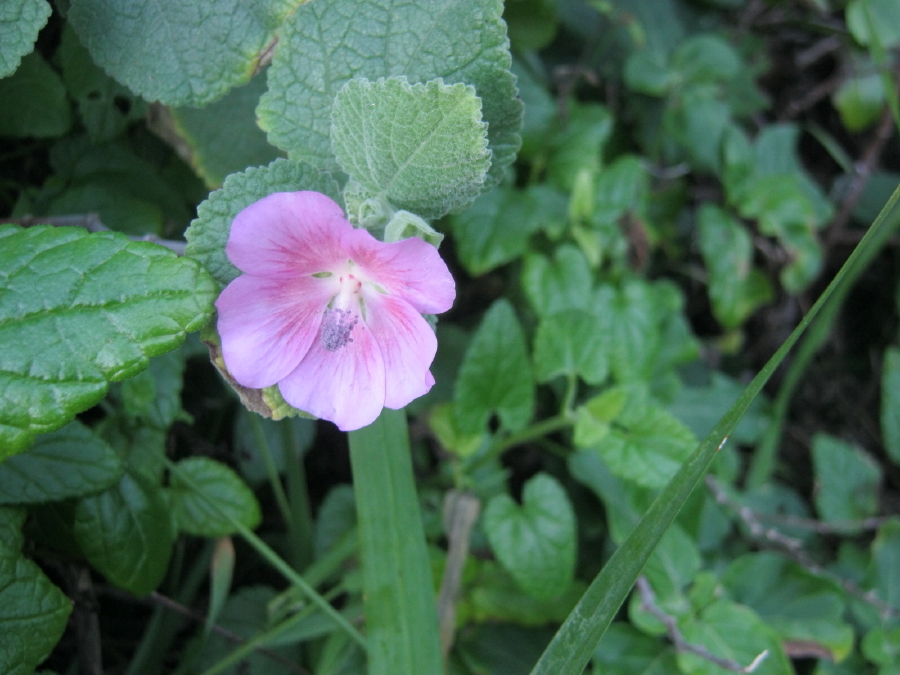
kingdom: Plantae
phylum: Tracheophyta
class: Magnoliopsida
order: Malvales
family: Malvaceae
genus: Anisodontea
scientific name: Anisodontea scabrosa
